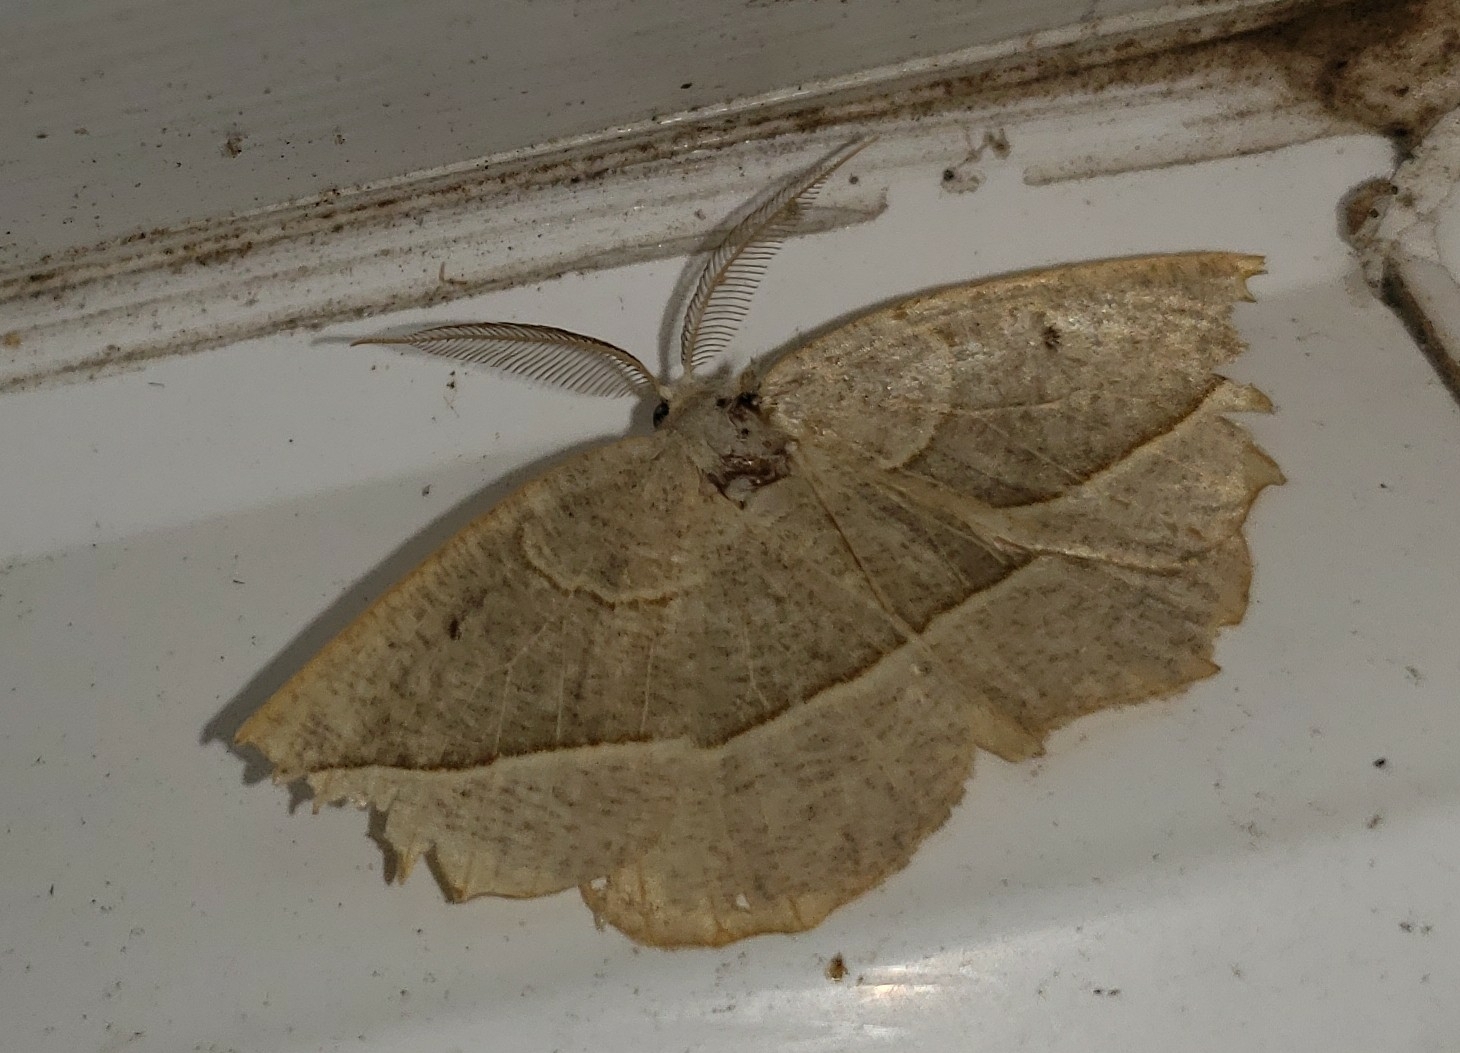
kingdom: Animalia
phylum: Arthropoda
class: Insecta
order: Lepidoptera
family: Geometridae
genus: Eusarca
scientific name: Eusarca confusaria
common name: Confused eusarca
